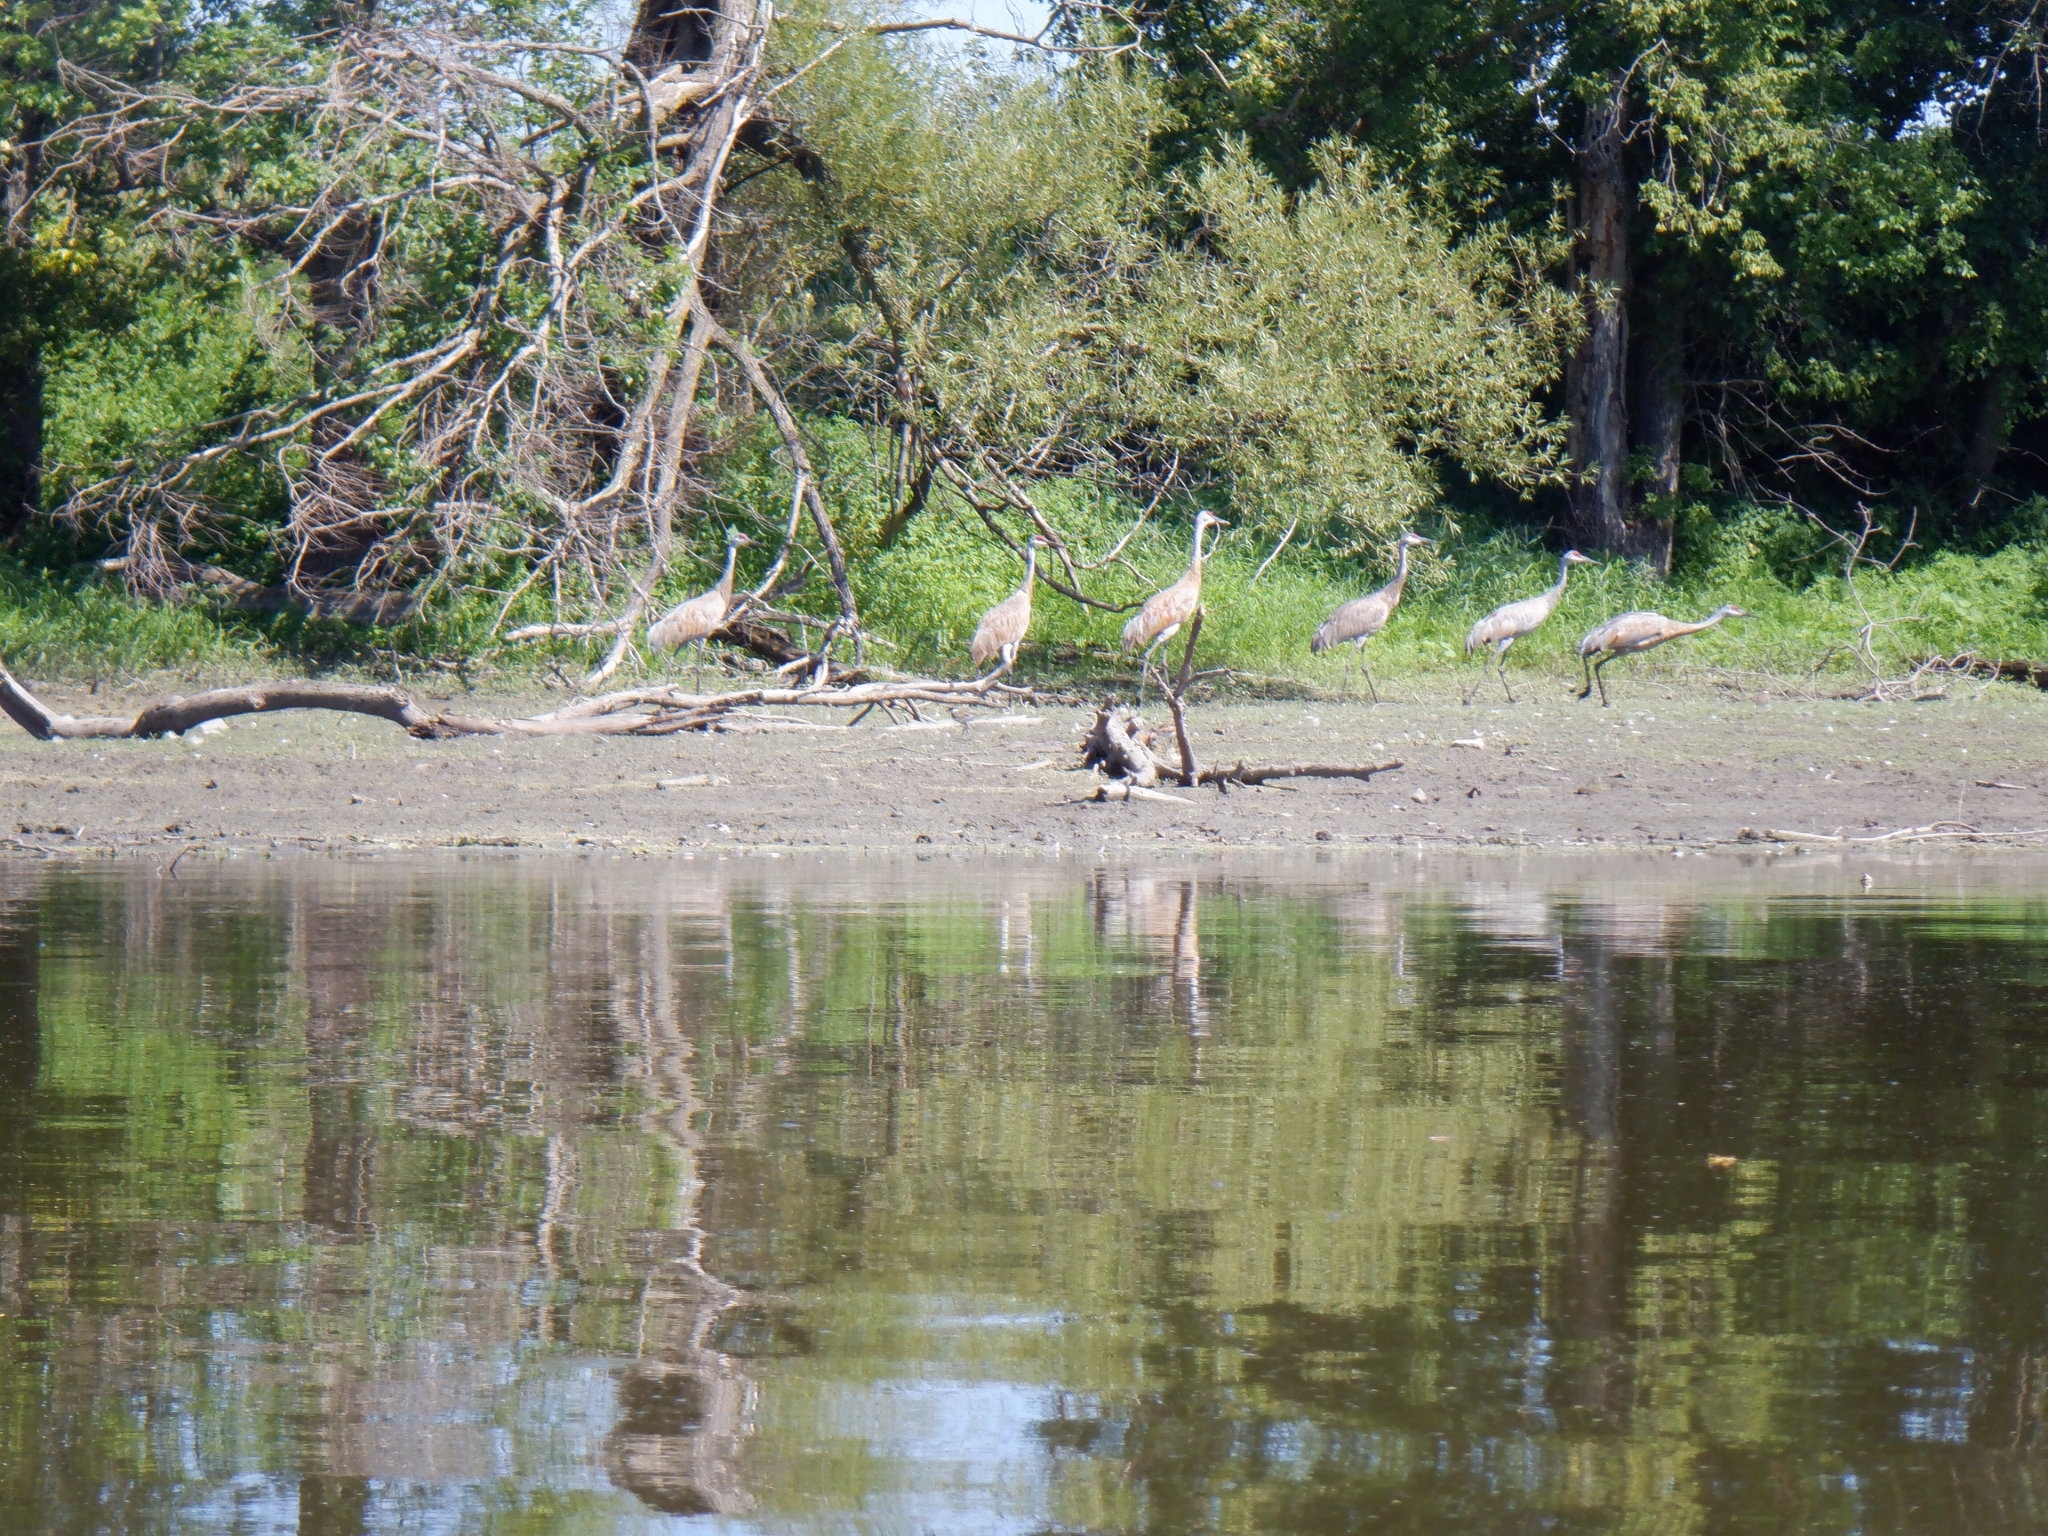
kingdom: Animalia
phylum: Chordata
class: Aves
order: Gruiformes
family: Gruidae
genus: Grus
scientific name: Grus canadensis
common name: Sandhill crane
